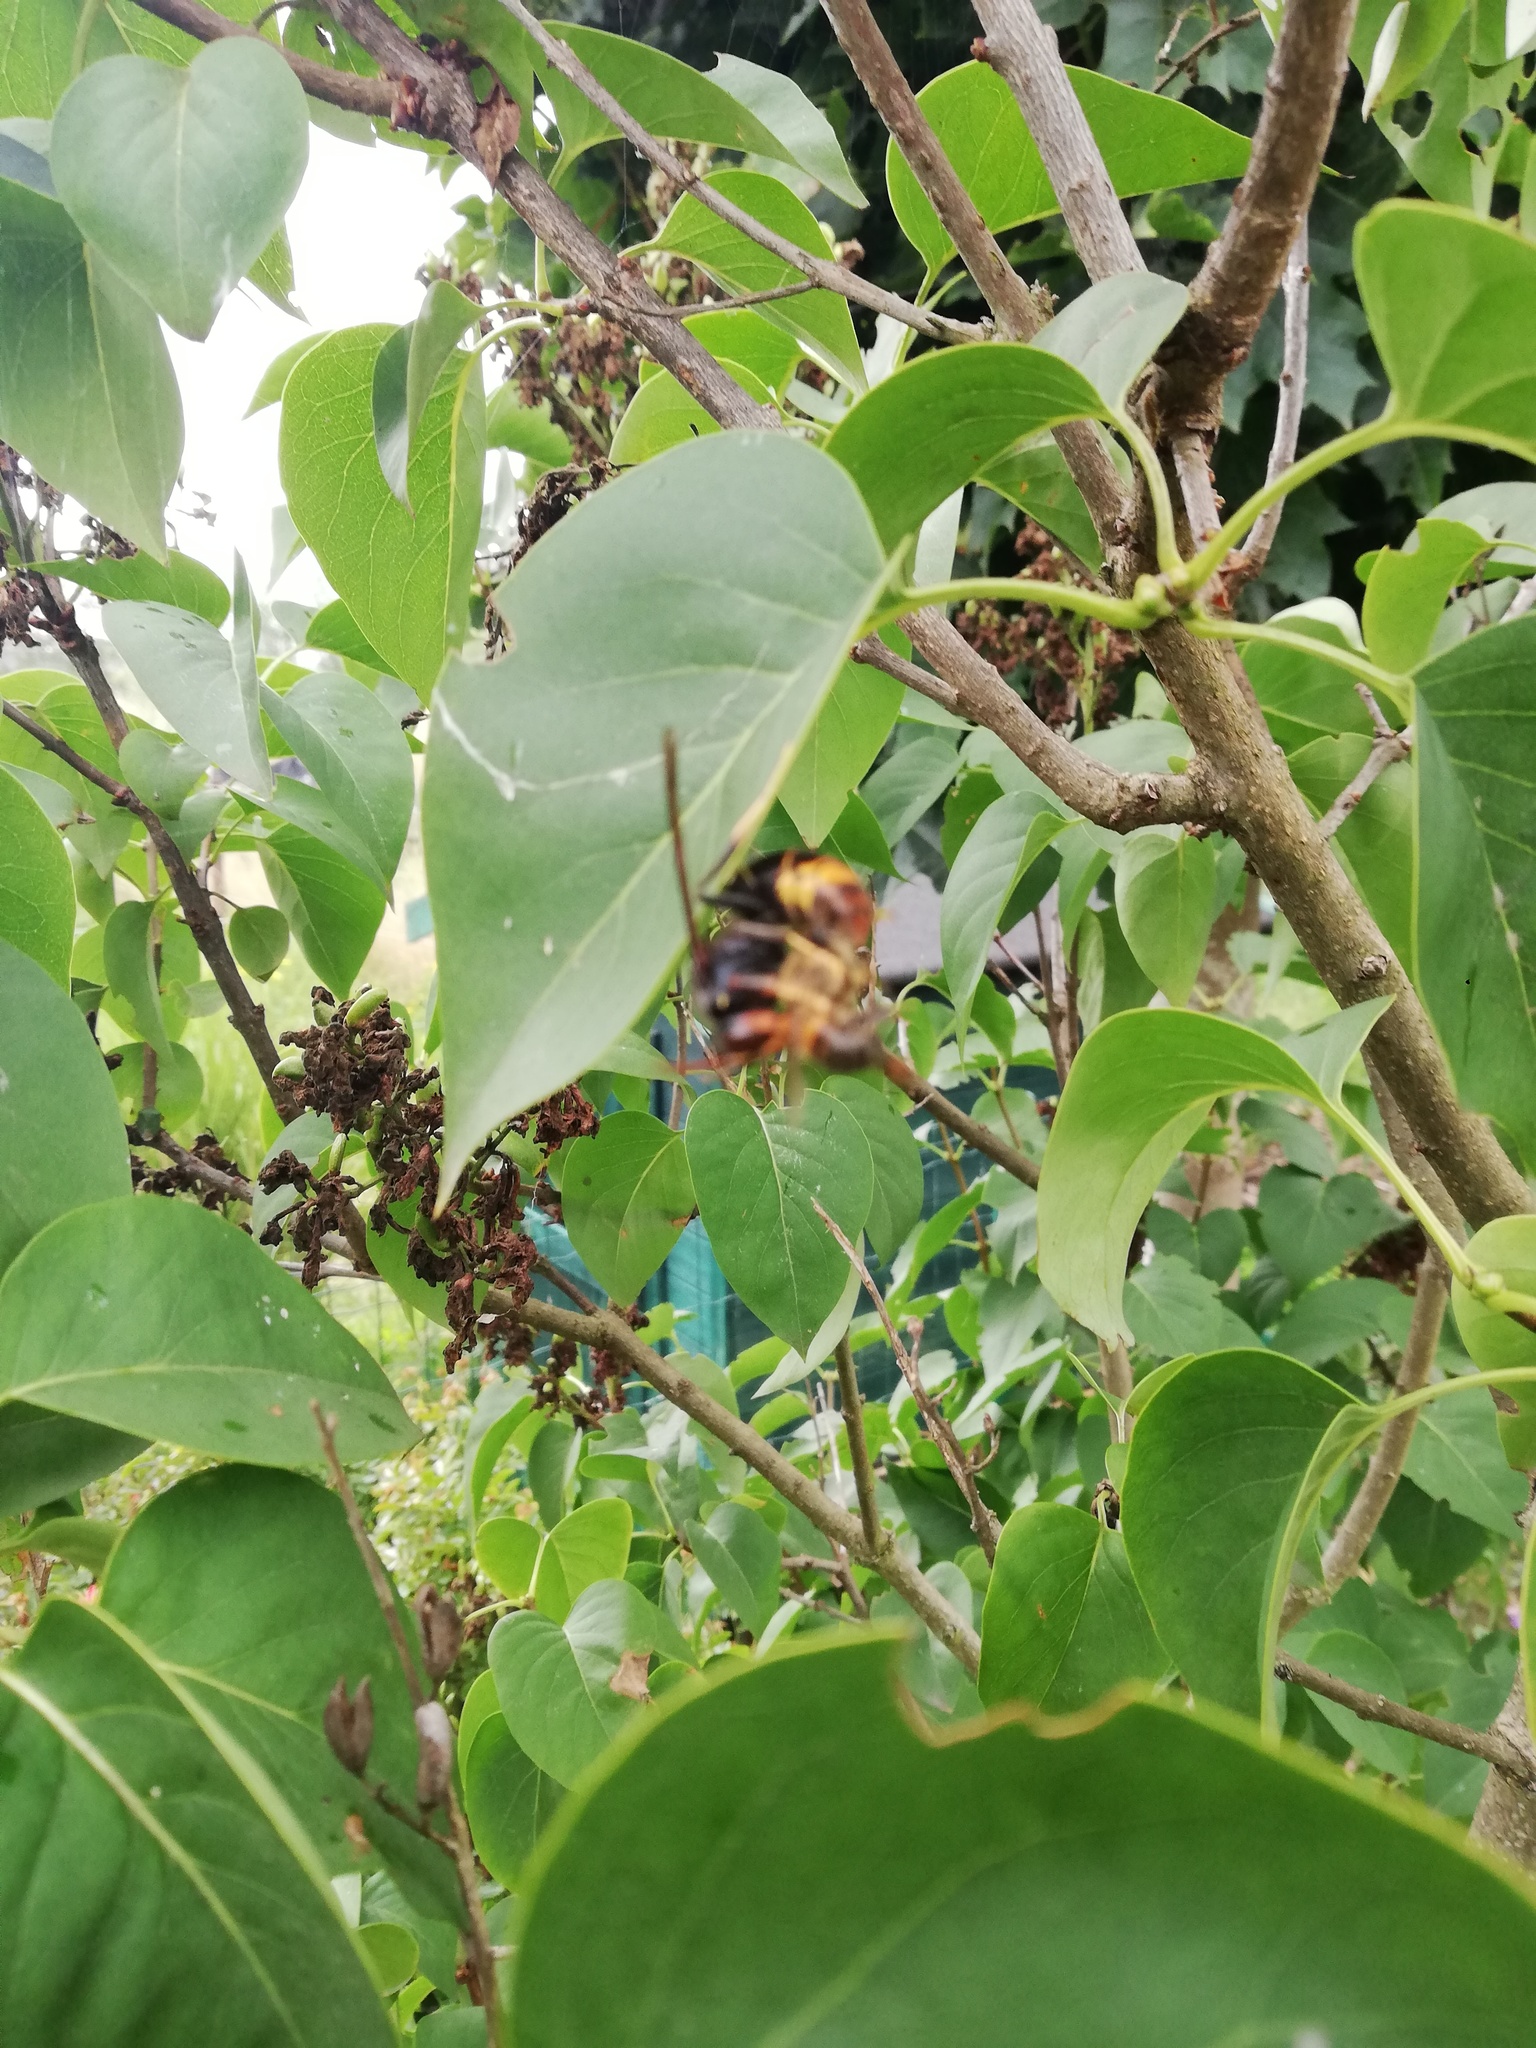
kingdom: Animalia
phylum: Arthropoda
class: Insecta
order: Hymenoptera
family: Vespidae
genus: Vespa
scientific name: Vespa velutina
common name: Asian hornet
